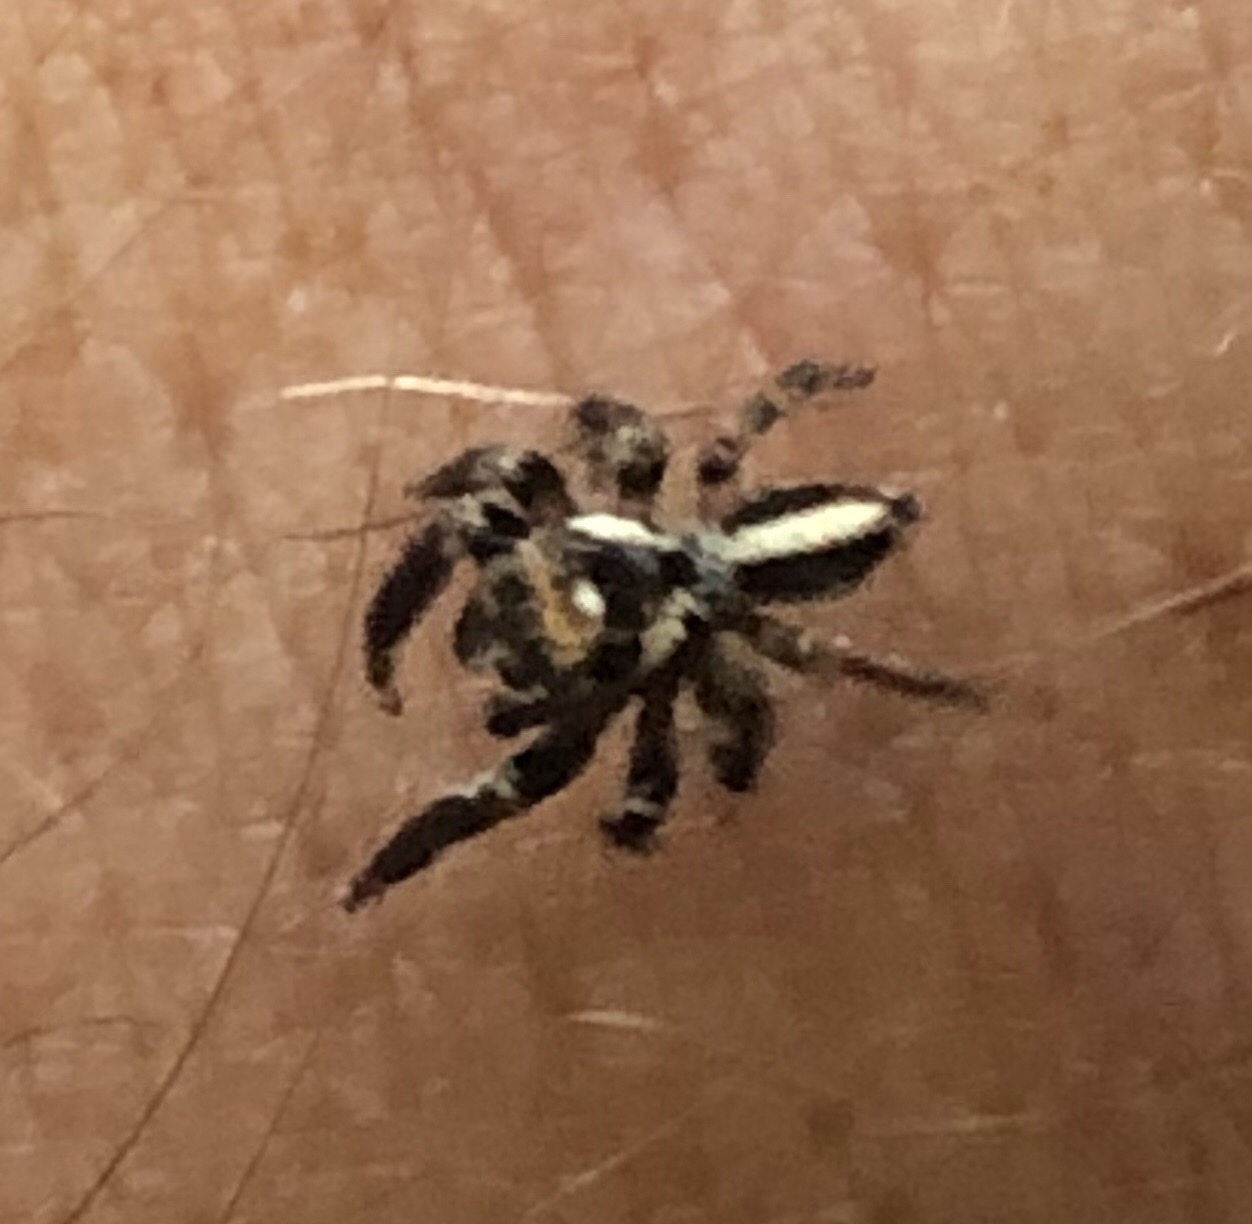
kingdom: Animalia
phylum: Arthropoda
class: Arachnida
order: Araneae
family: Salticidae
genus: Evarcha
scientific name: Evarcha denticulata
